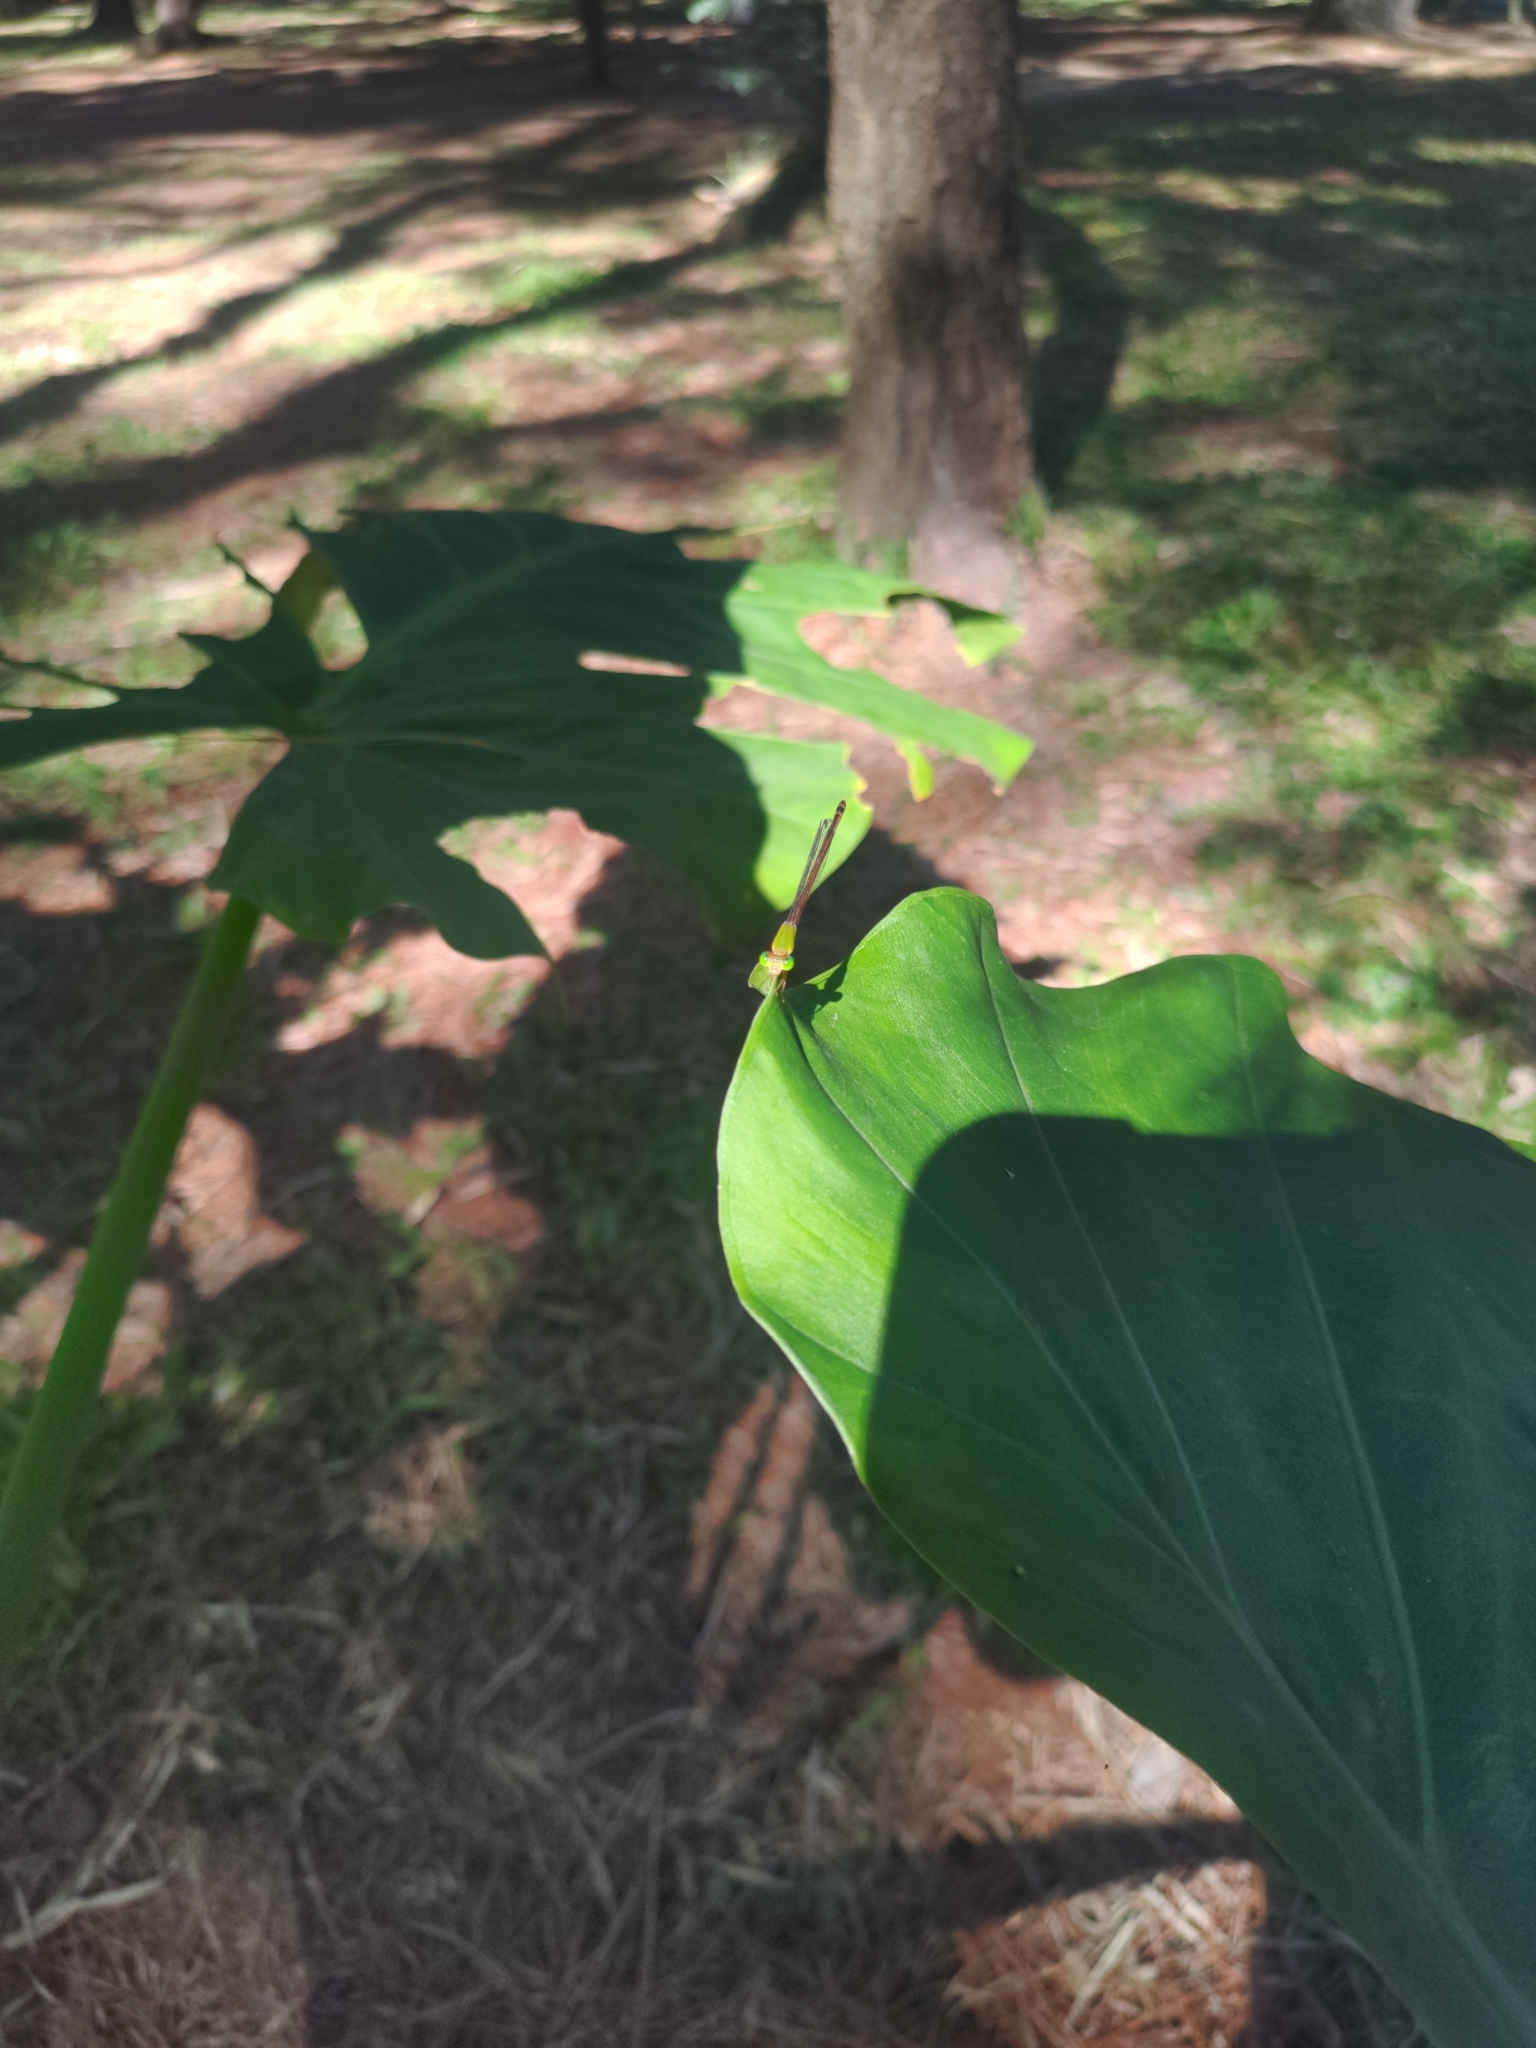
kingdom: Animalia
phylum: Arthropoda
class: Insecta
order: Odonata
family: Coenagrionidae
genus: Ceriagrion
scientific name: Ceriagrion auranticum
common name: Orange-tailed sprite
